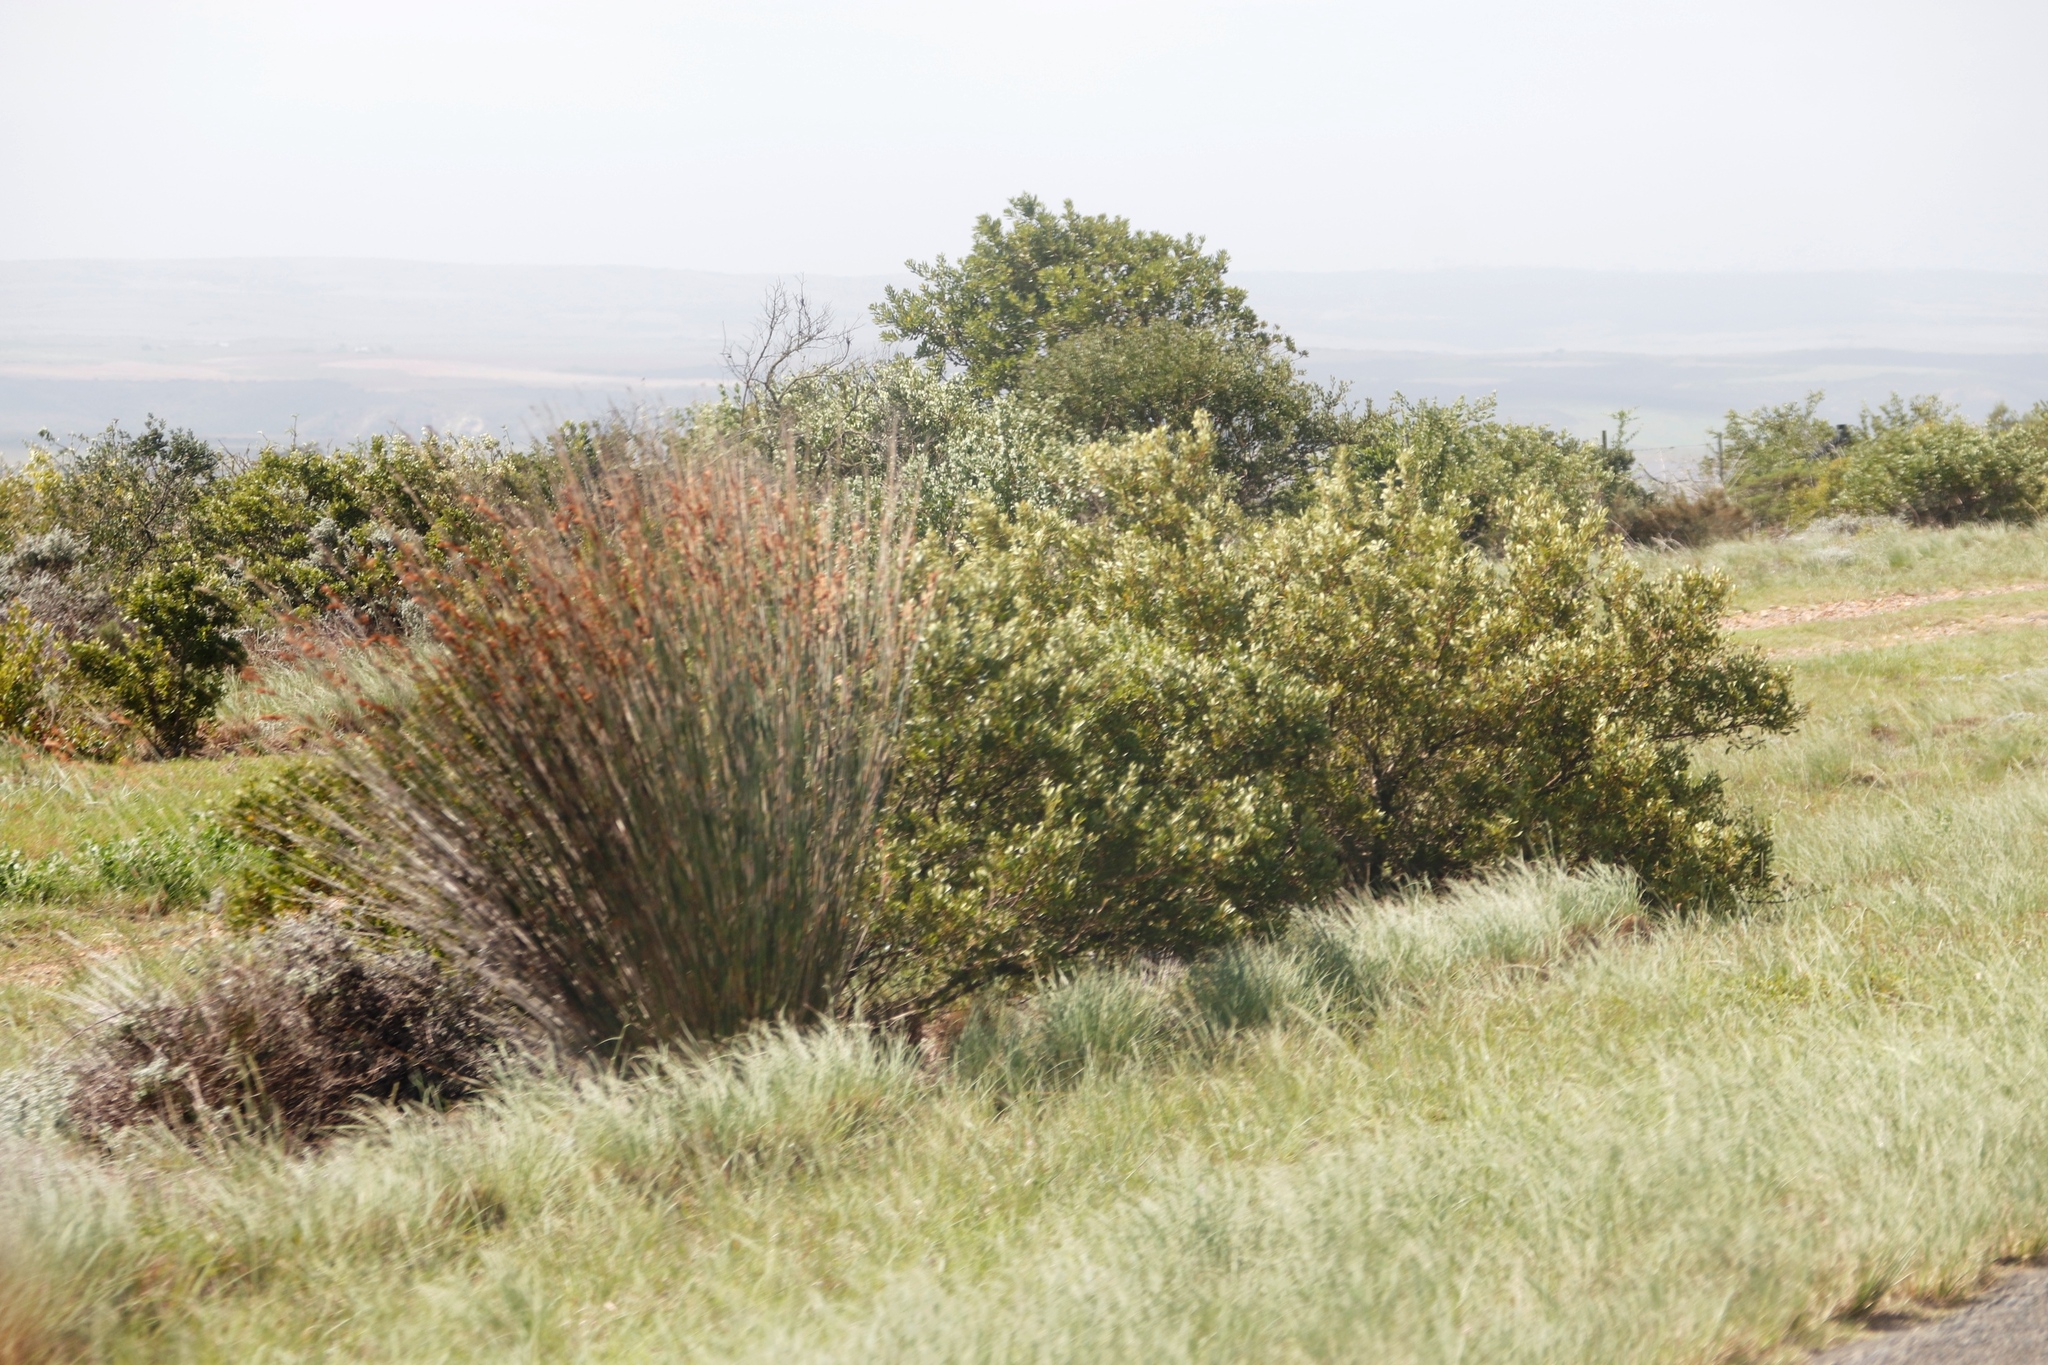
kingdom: Plantae
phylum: Tracheophyta
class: Liliopsida
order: Poales
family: Restionaceae
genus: Thamnochortus
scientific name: Thamnochortus insignis
